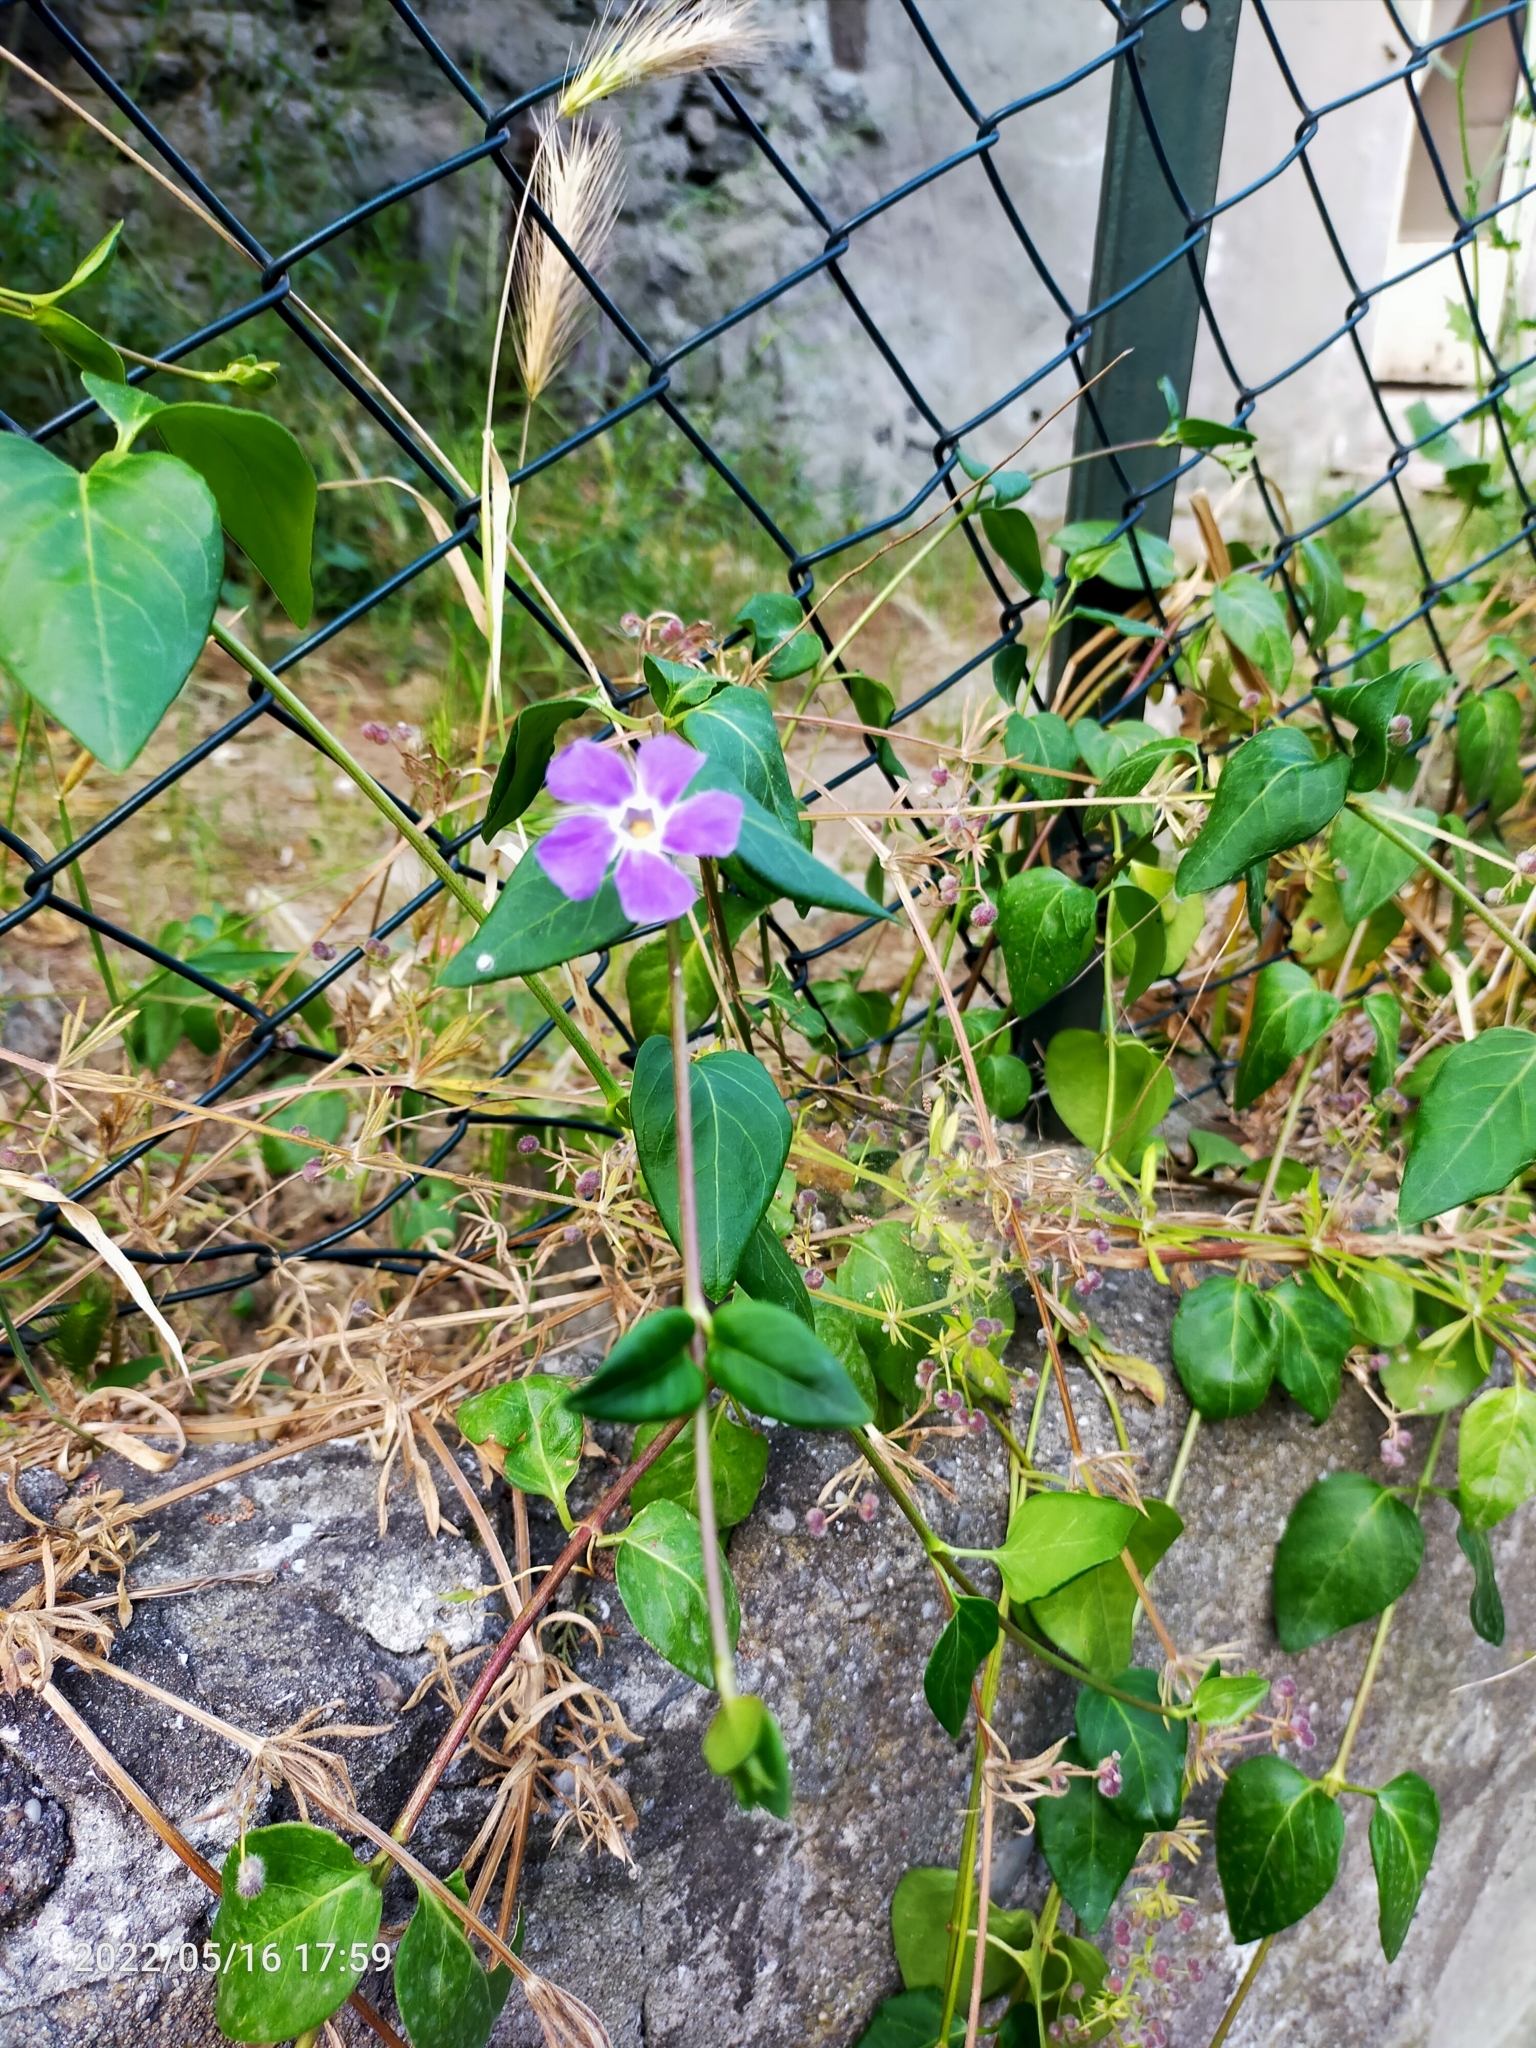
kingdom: Plantae
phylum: Tracheophyta
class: Magnoliopsida
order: Gentianales
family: Apocynaceae
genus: Vinca
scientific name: Vinca major
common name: Greater periwinkle
